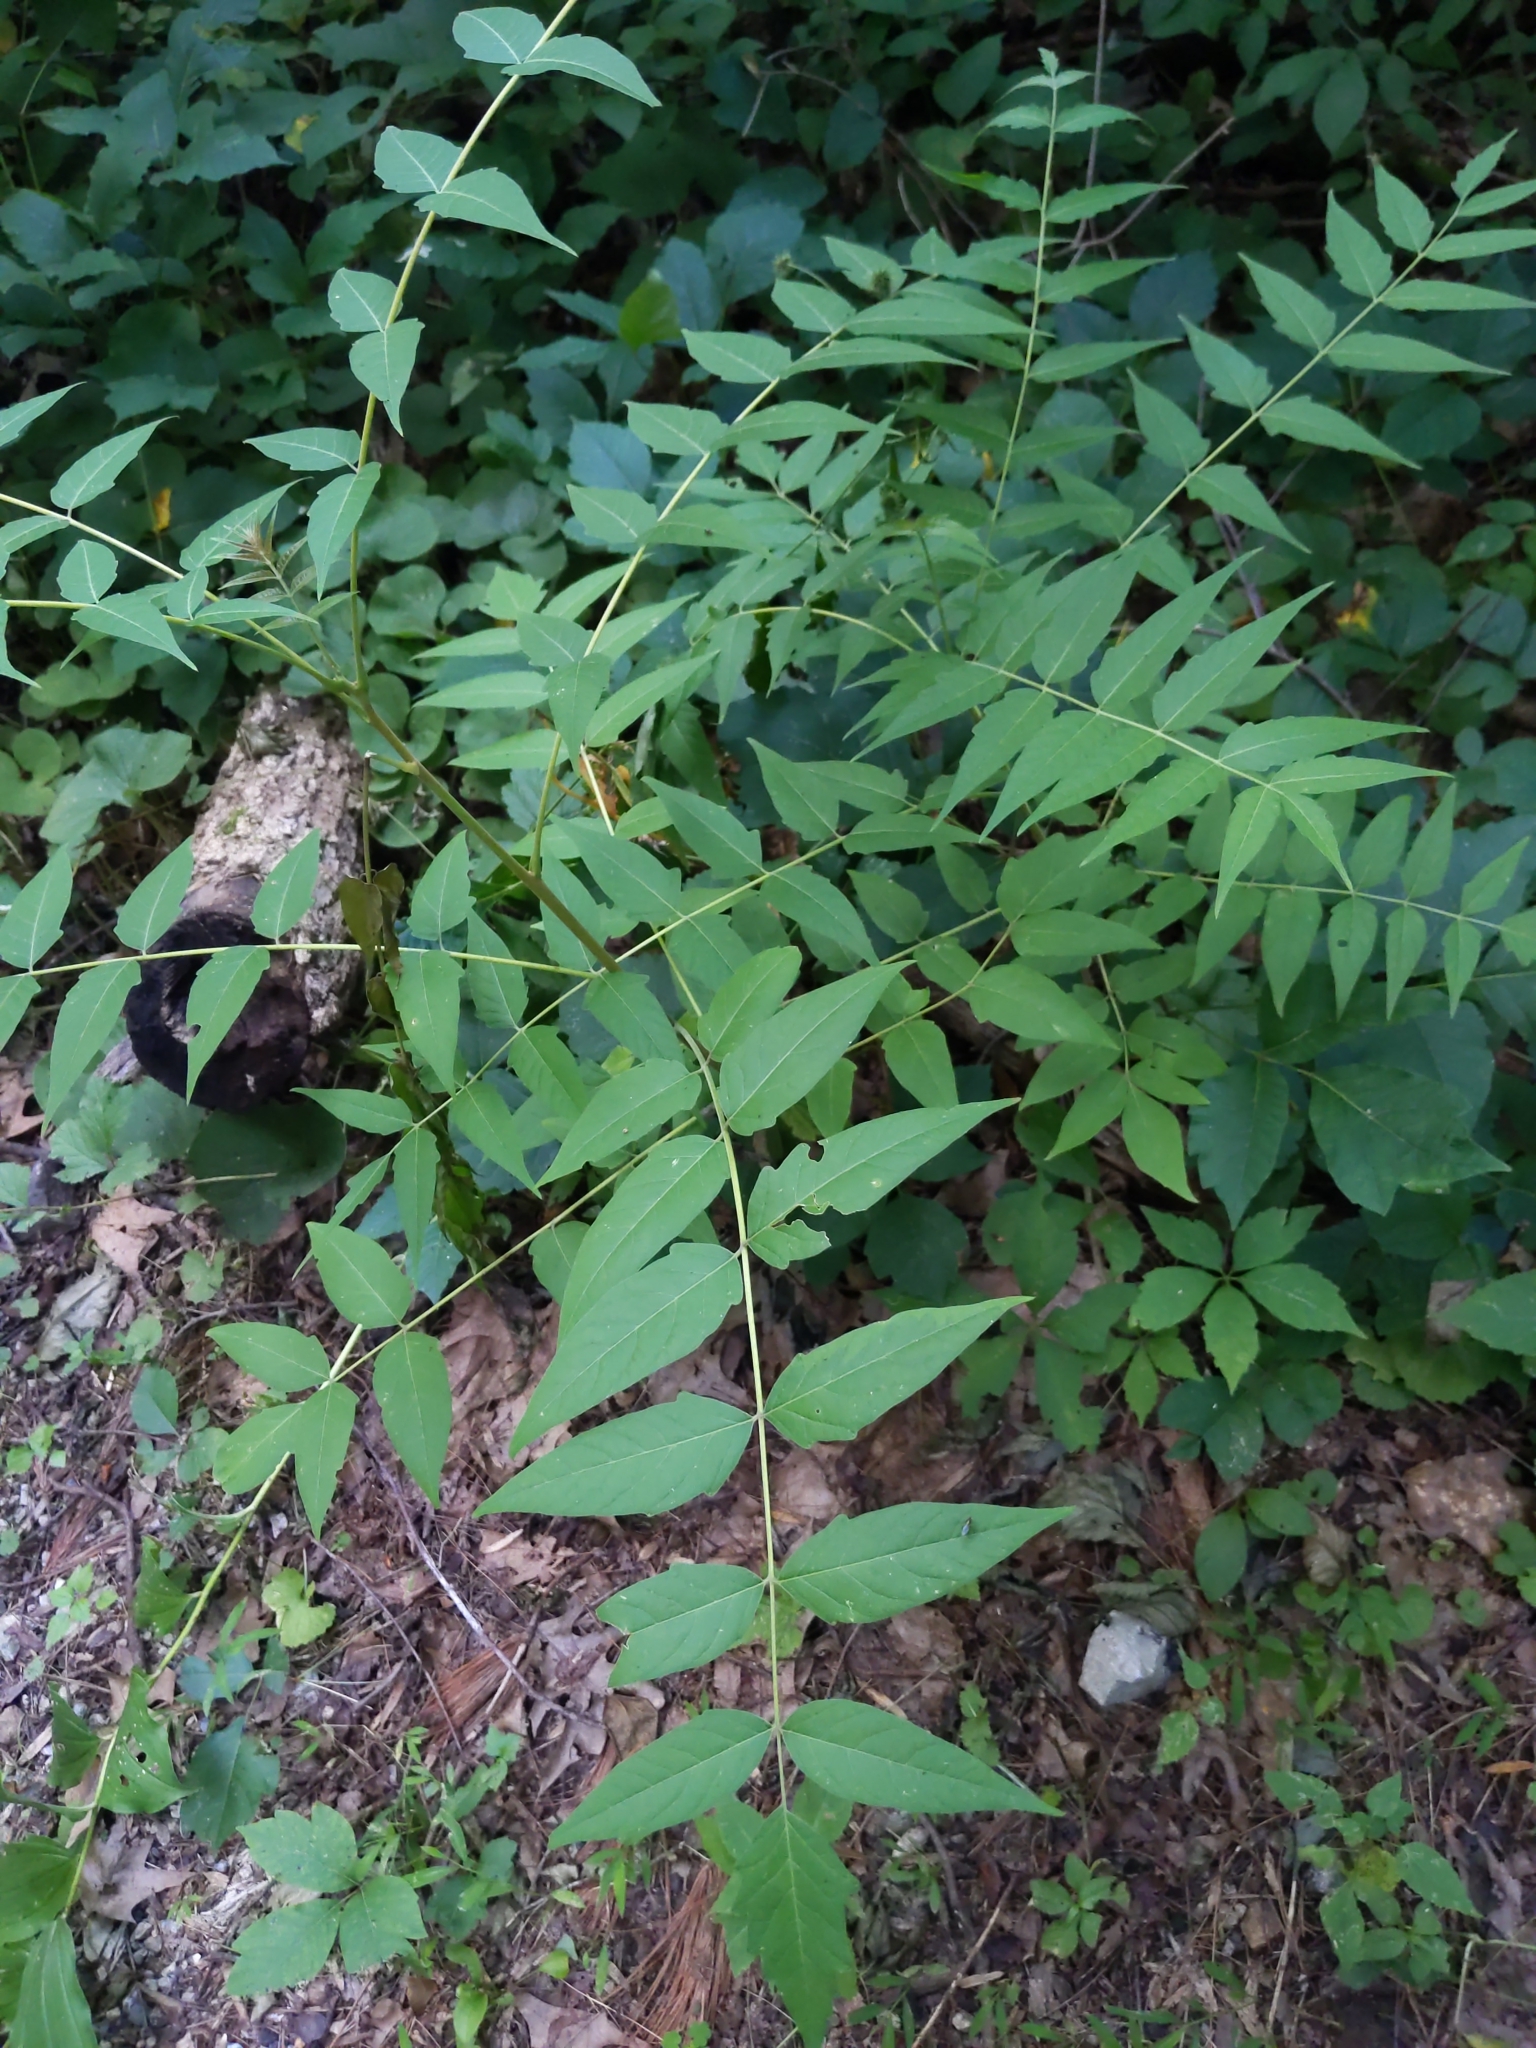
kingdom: Plantae
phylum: Tracheophyta
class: Magnoliopsida
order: Sapindales
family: Simaroubaceae
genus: Ailanthus
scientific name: Ailanthus altissima
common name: Tree-of-heaven
